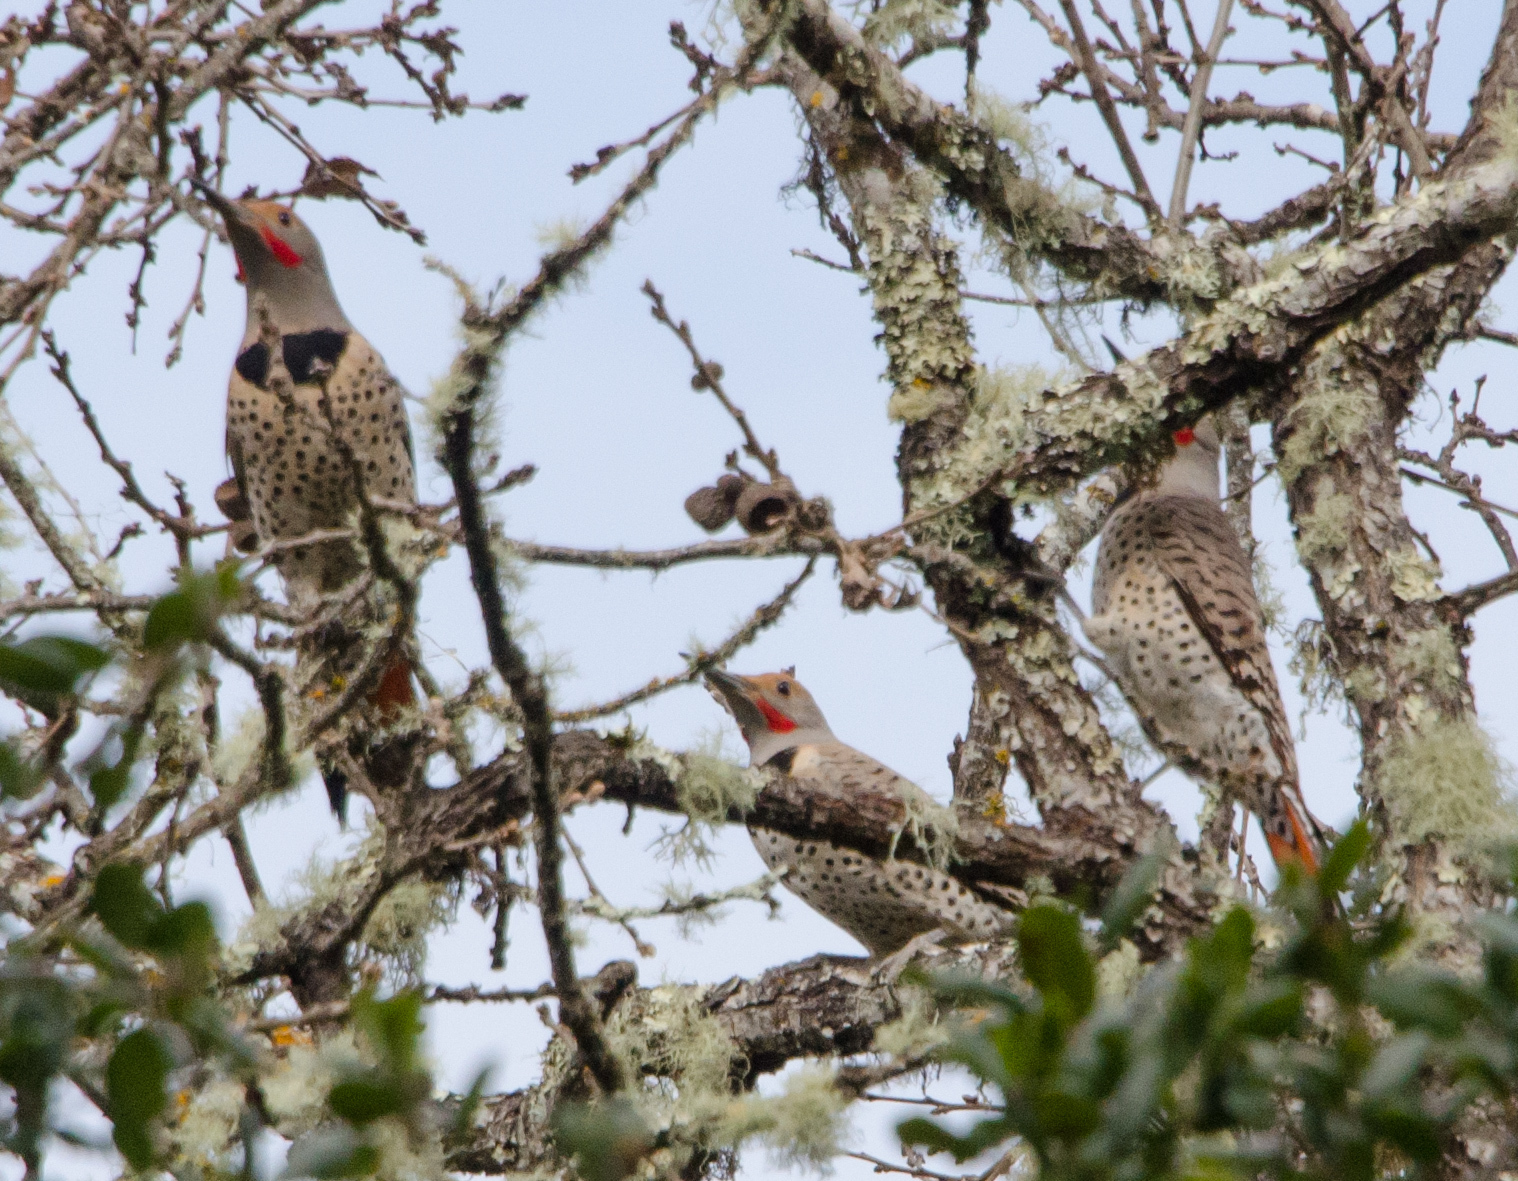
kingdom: Animalia
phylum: Chordata
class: Aves
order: Piciformes
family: Picidae
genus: Colaptes
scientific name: Colaptes auratus
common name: Northern flicker
